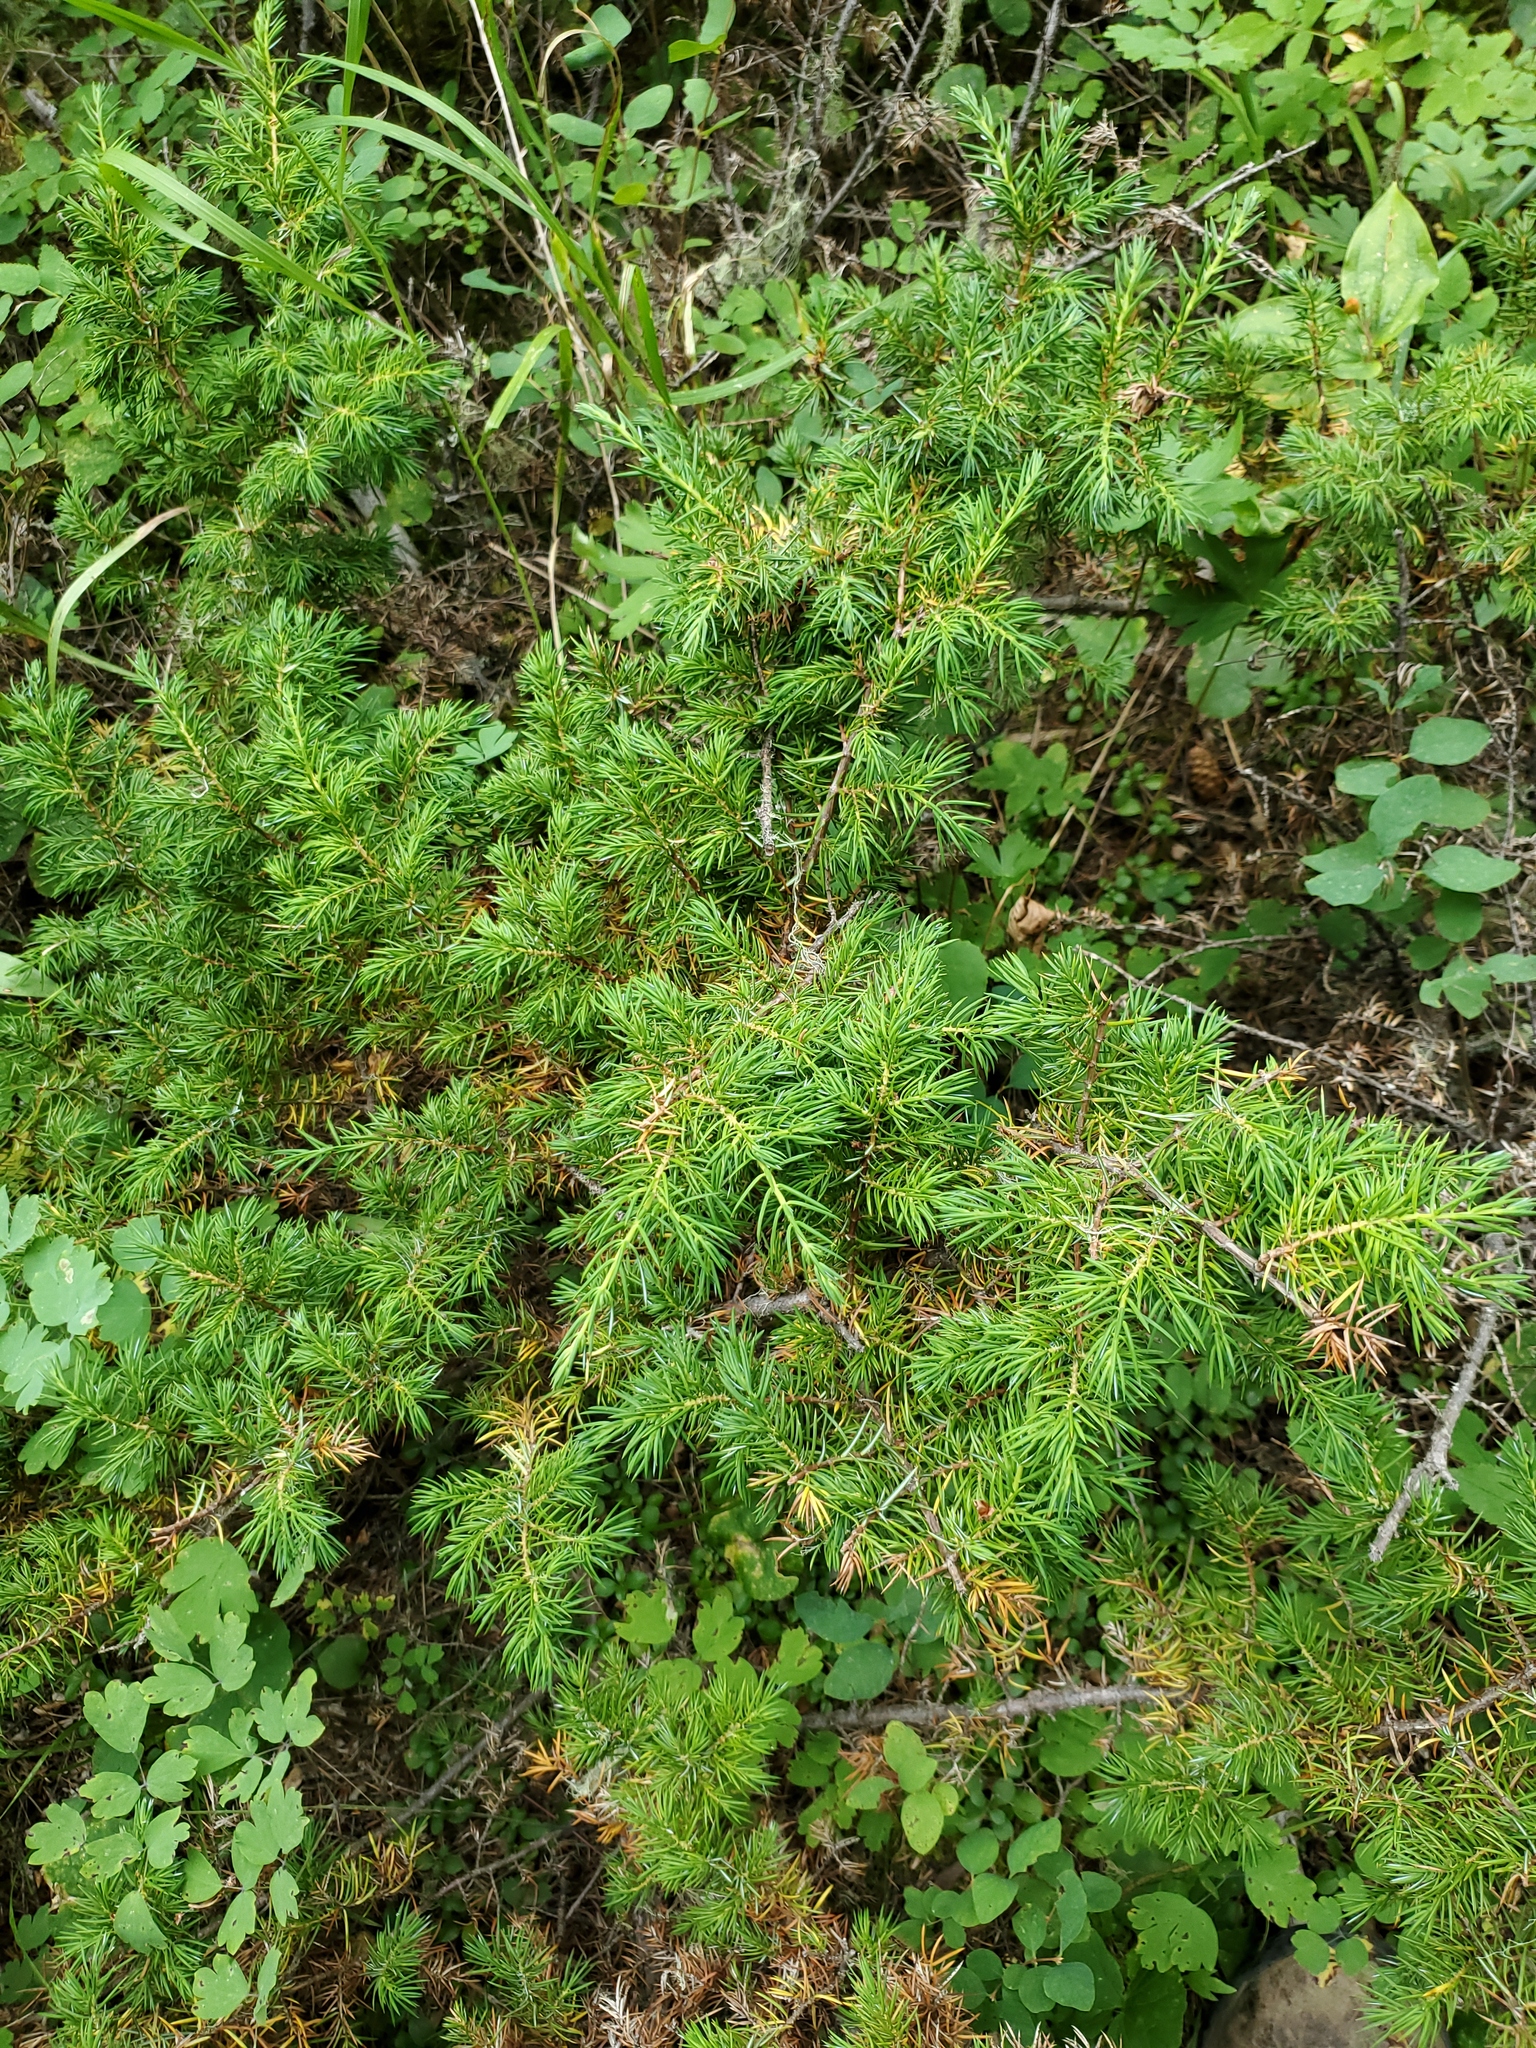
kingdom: Plantae
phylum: Tracheophyta
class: Pinopsida
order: Pinales
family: Cupressaceae
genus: Juniperus
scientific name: Juniperus communis
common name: Common juniper
